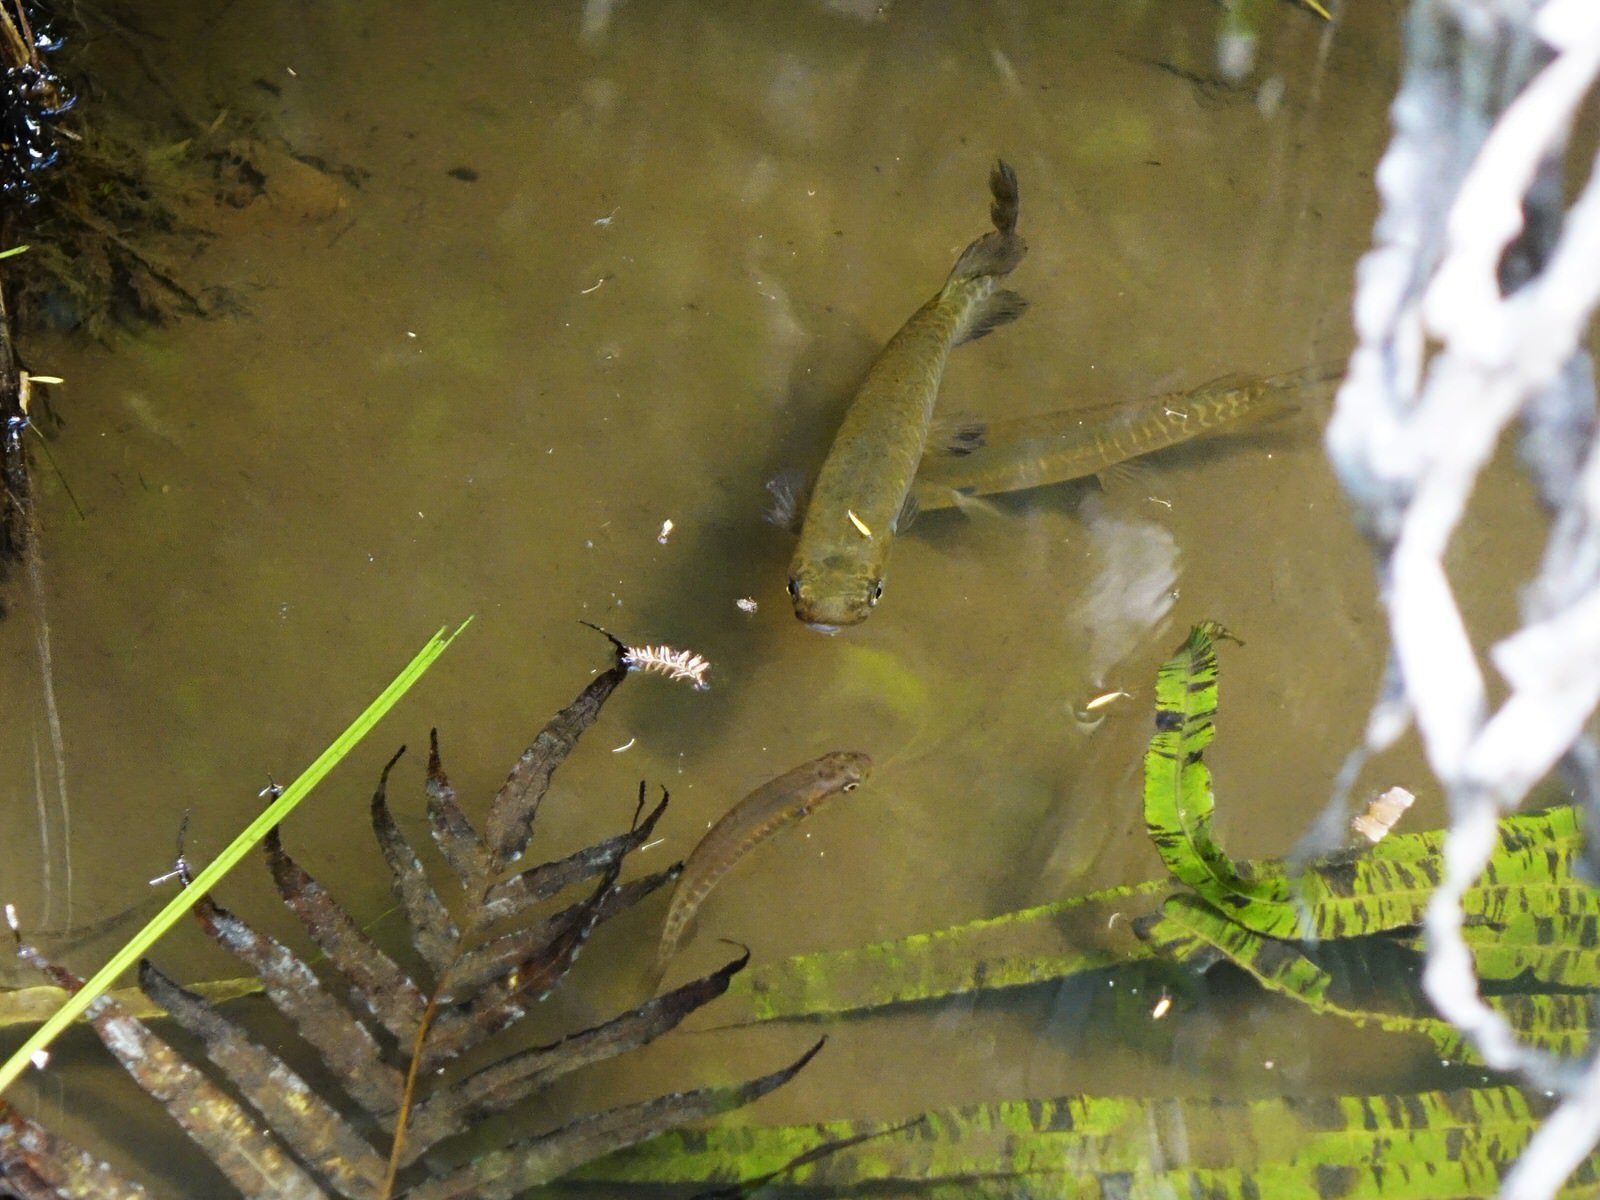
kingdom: Animalia
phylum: Chordata
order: Osmeriformes
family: Galaxiidae
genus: Galaxias
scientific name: Galaxias fasciatus
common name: Banded kokopu
